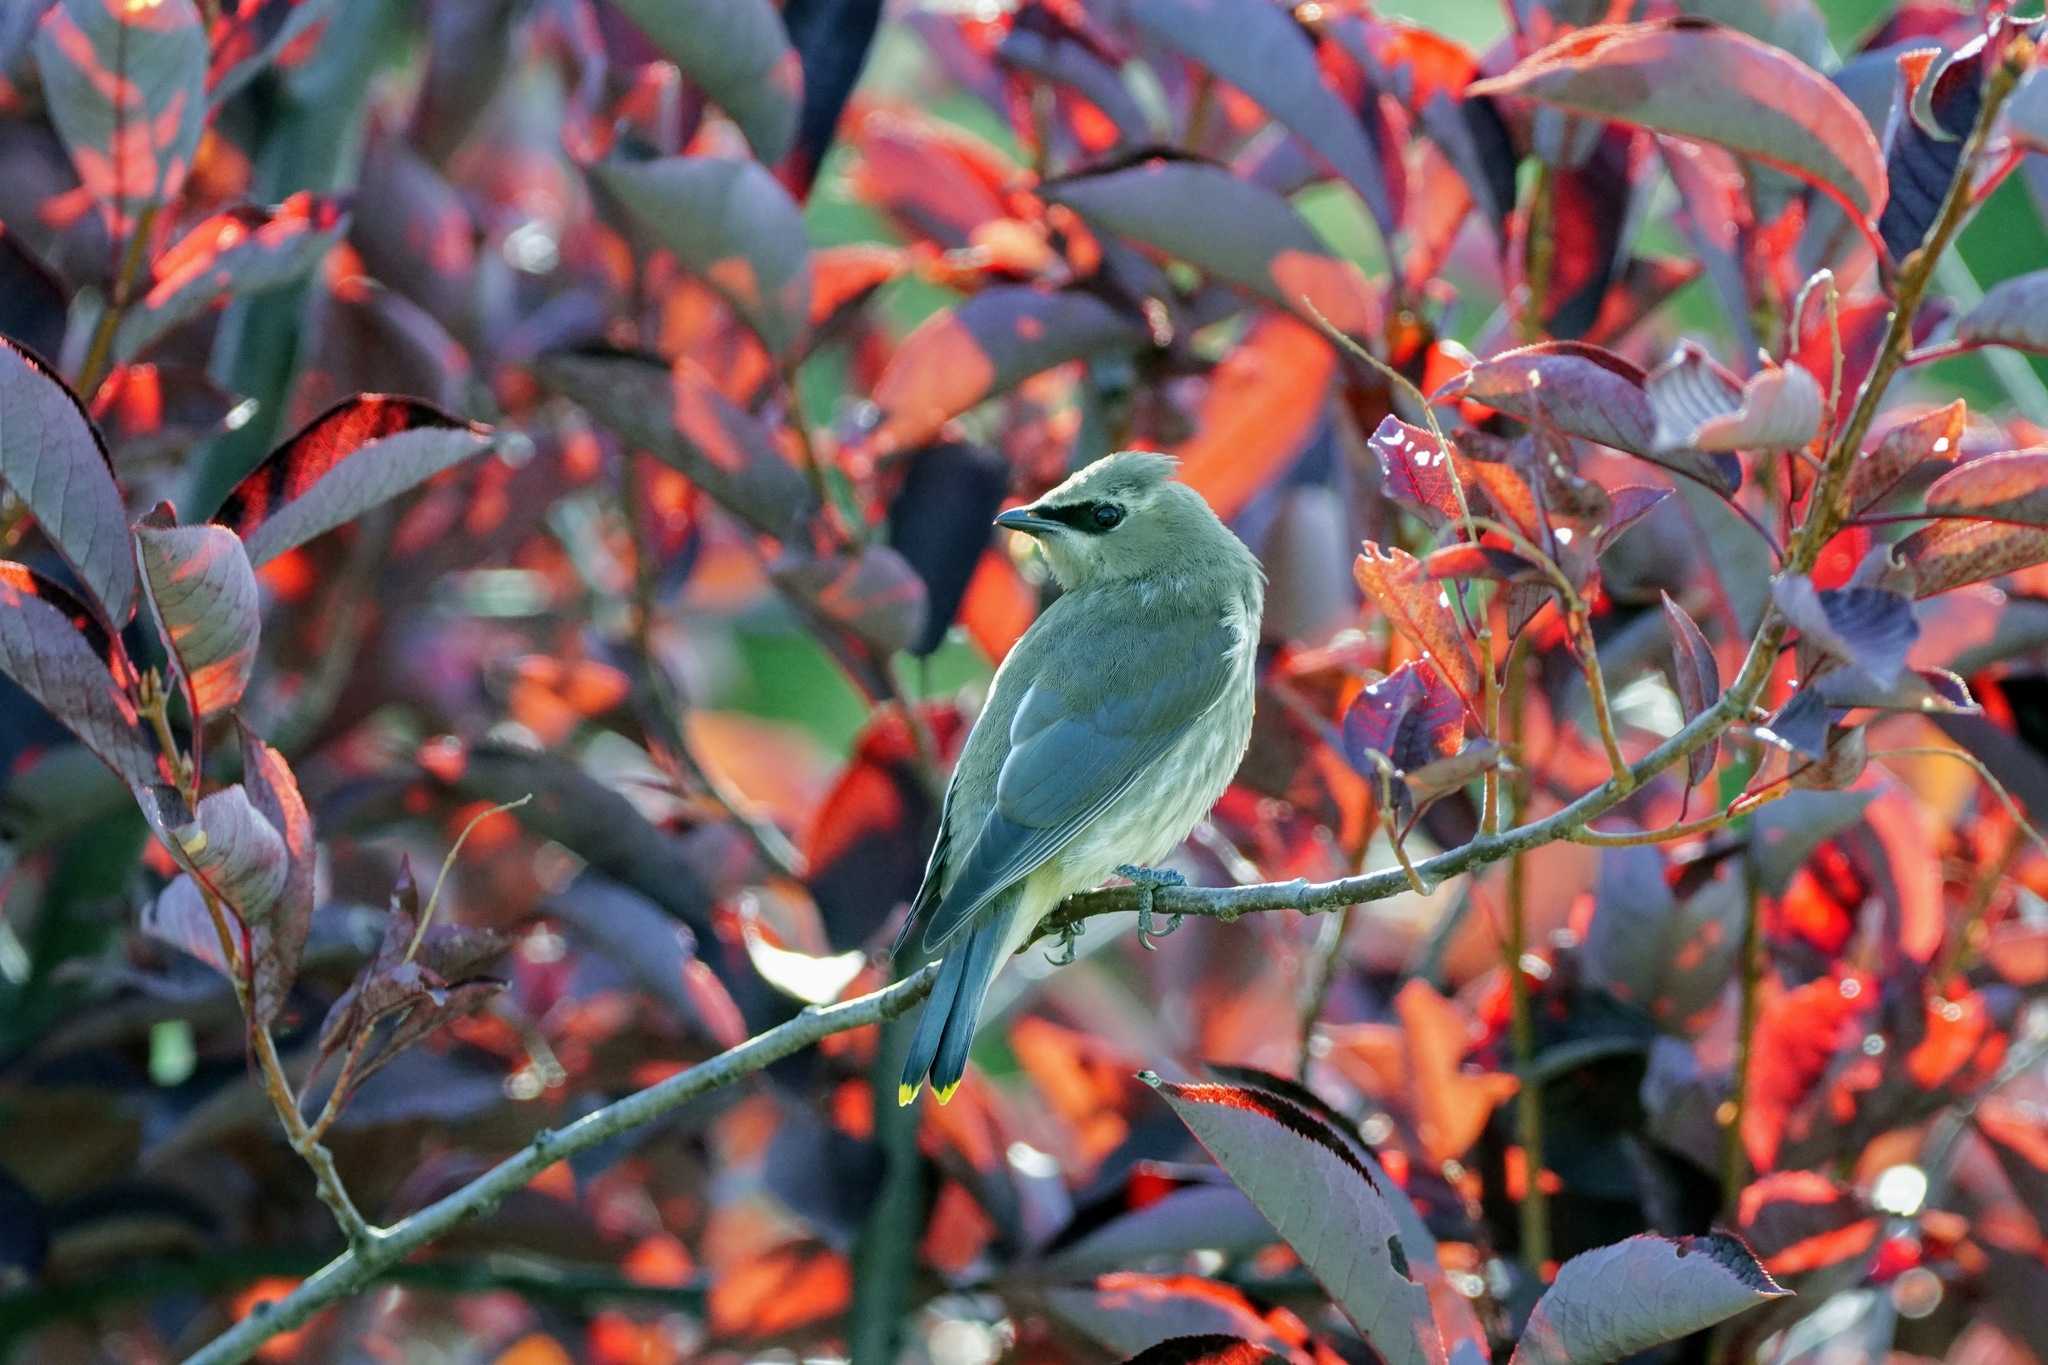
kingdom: Animalia
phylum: Chordata
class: Aves
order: Passeriformes
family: Bombycillidae
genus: Bombycilla
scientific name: Bombycilla cedrorum
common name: Cedar waxwing
